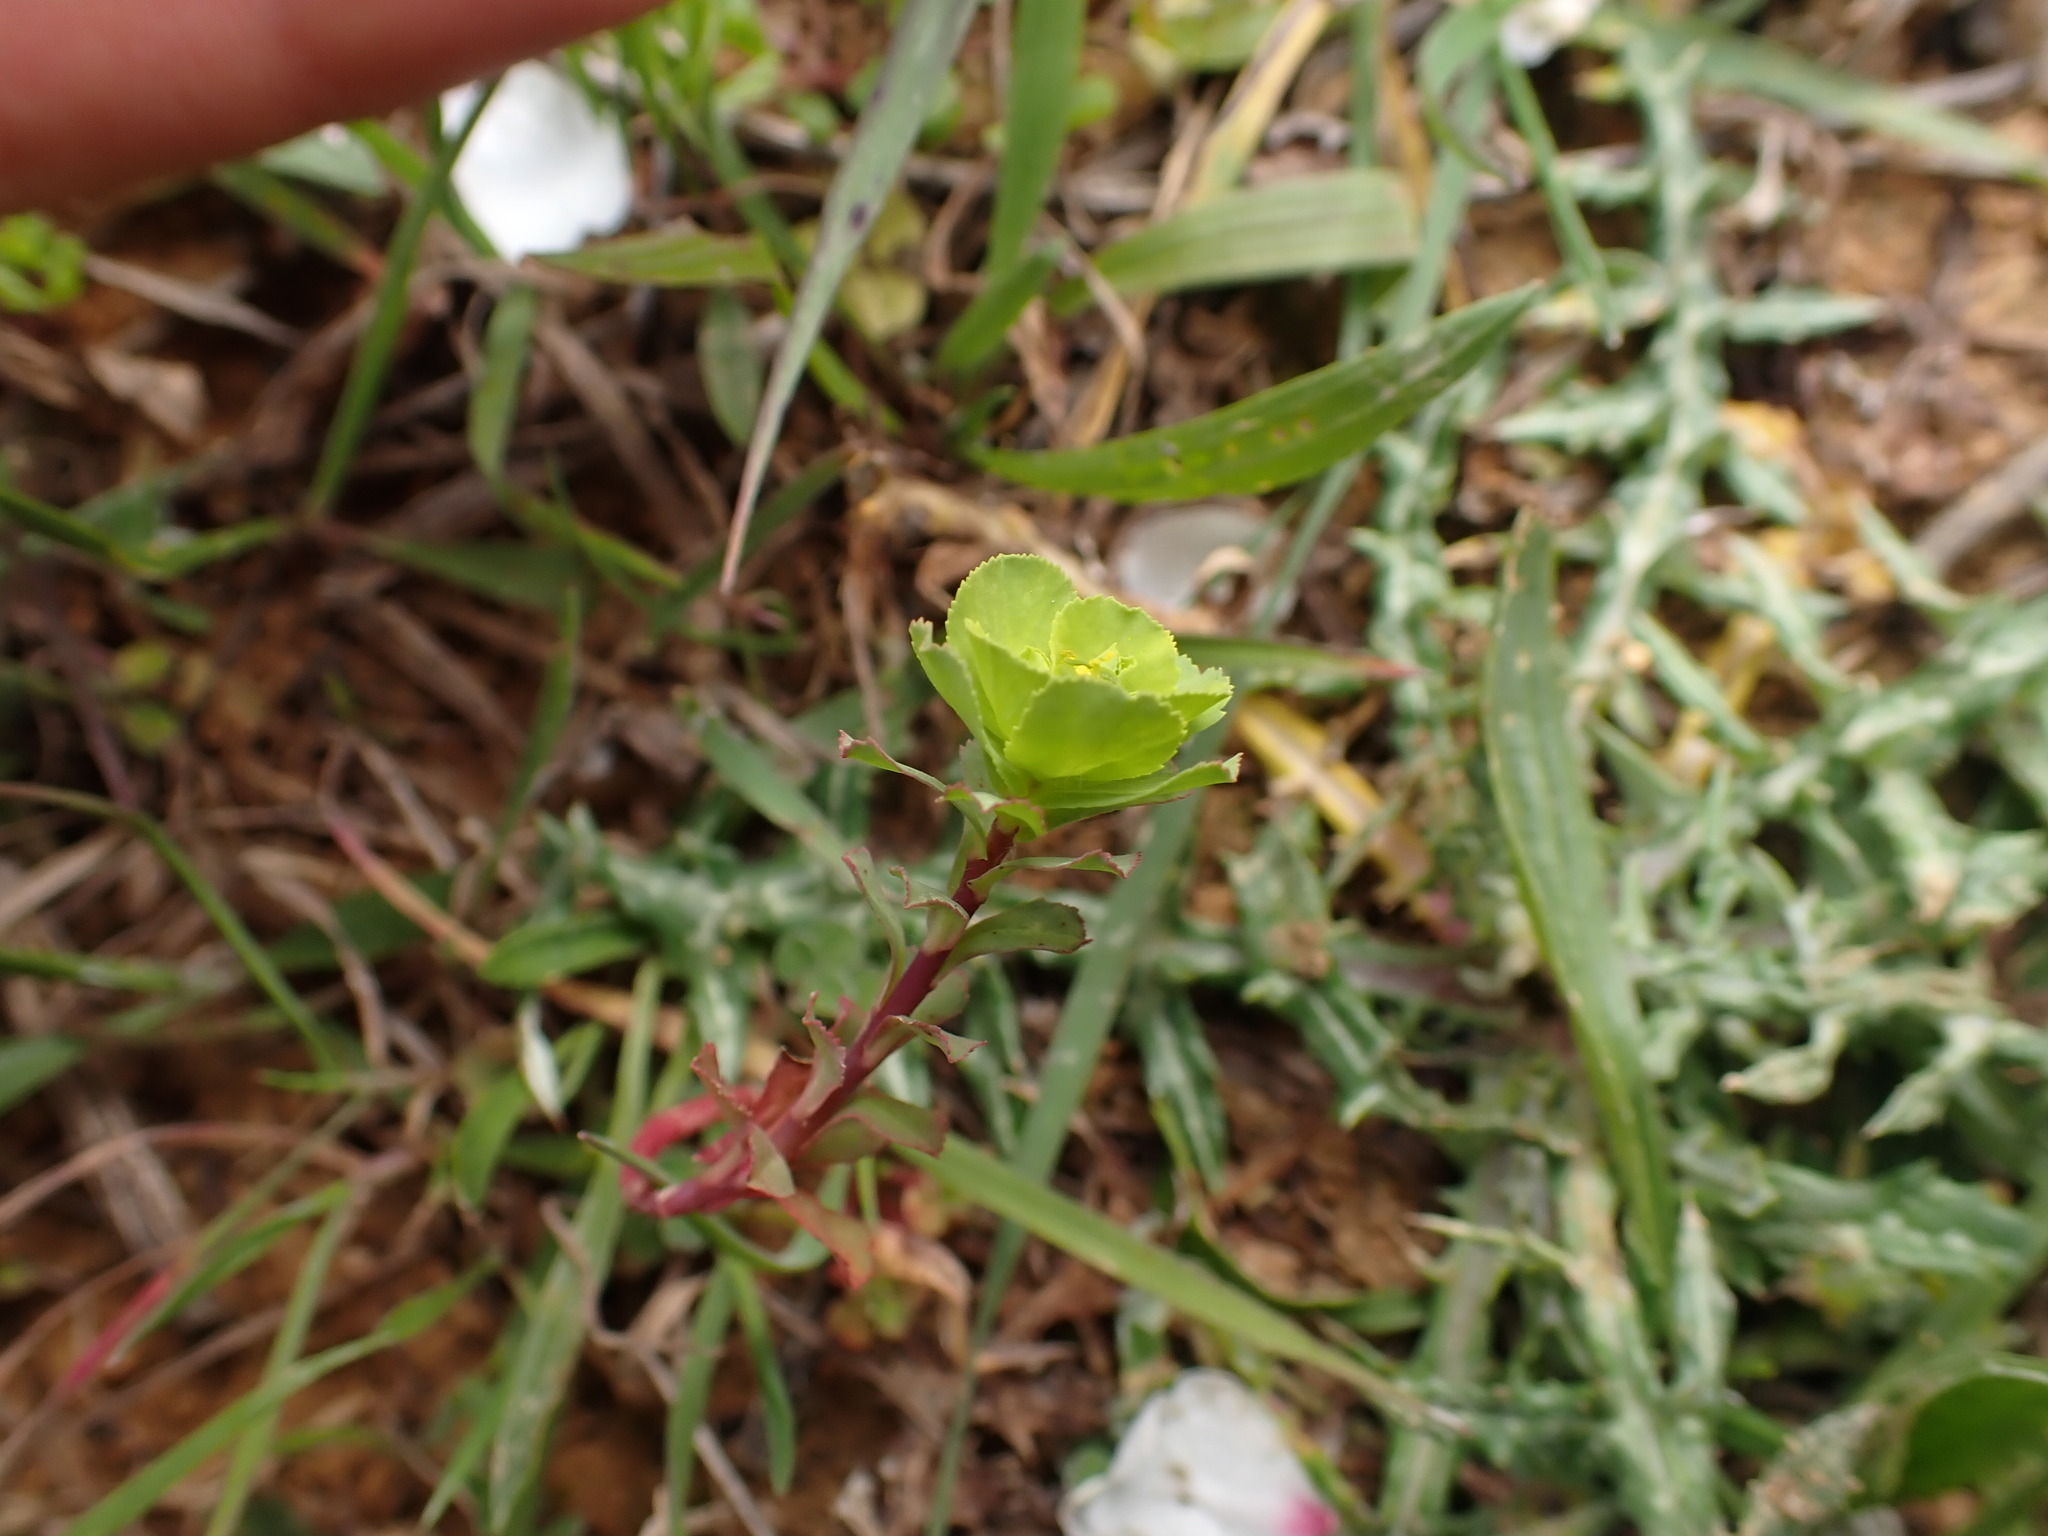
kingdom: Plantae
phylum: Tracheophyta
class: Magnoliopsida
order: Malpighiales
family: Euphorbiaceae
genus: Euphorbia
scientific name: Euphorbia helioscopia
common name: Sun spurge
